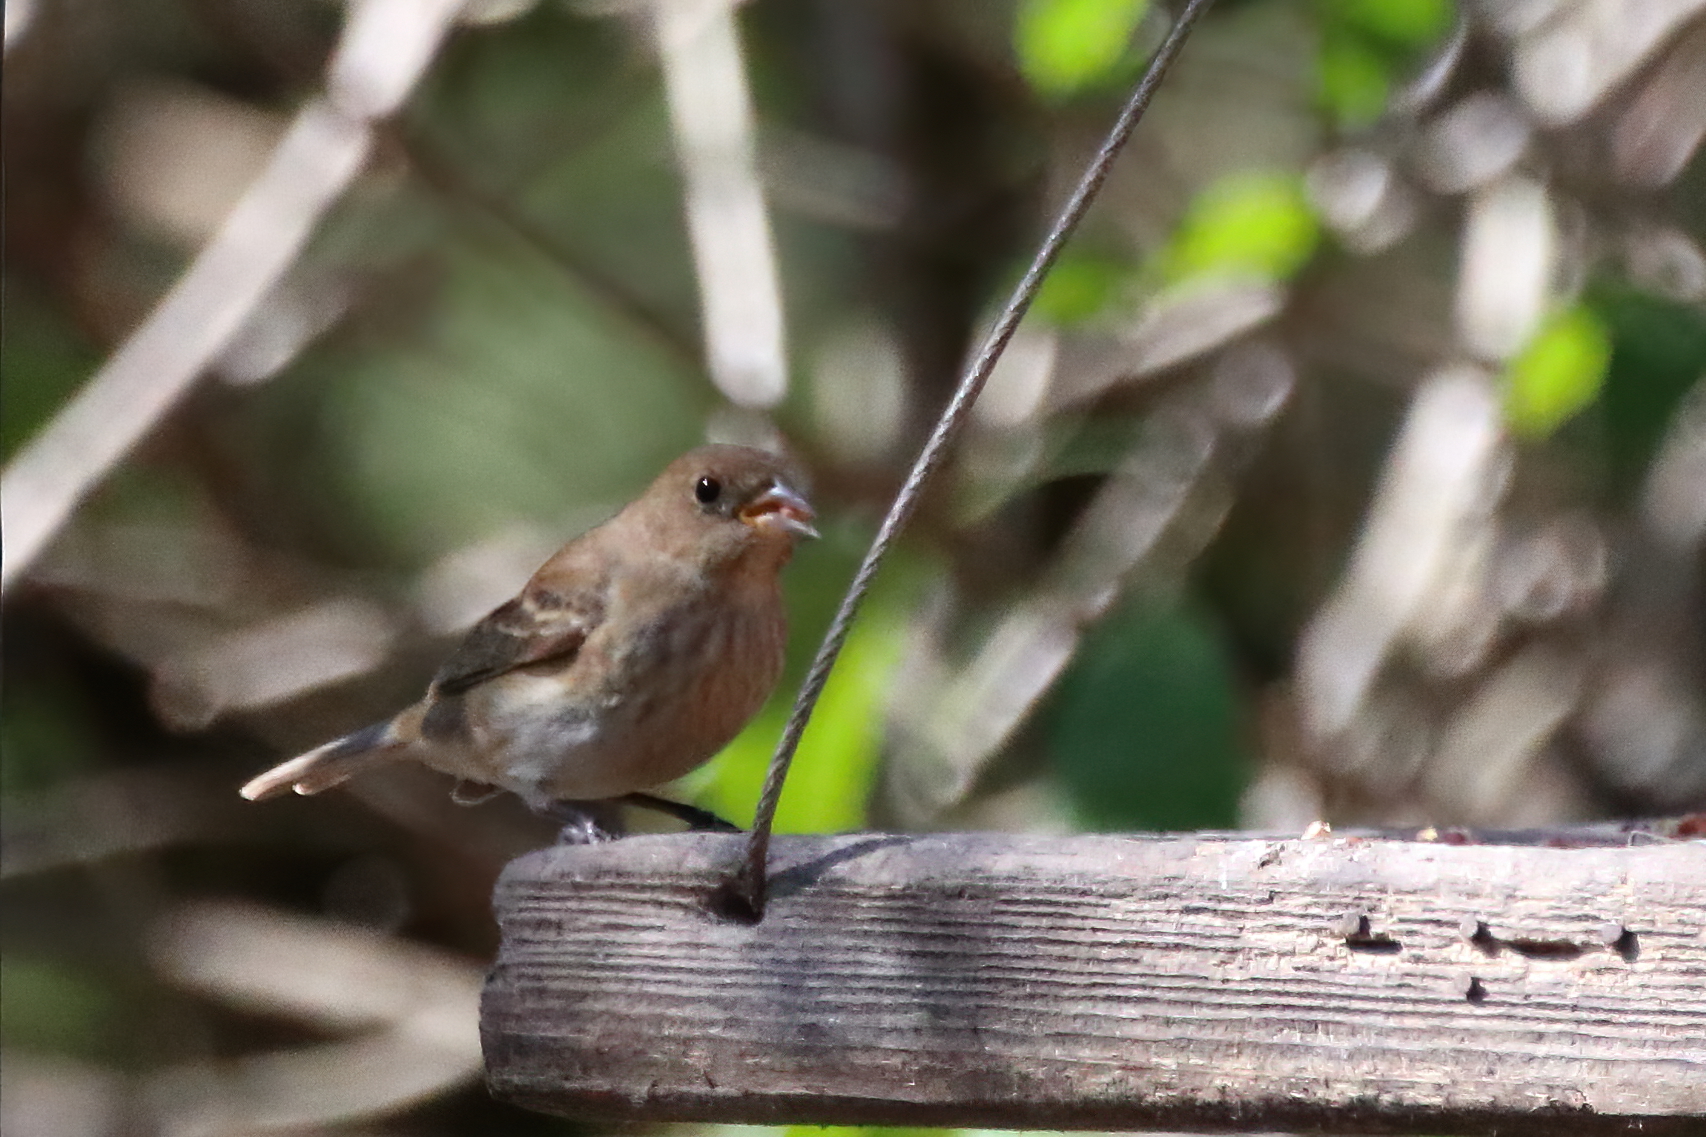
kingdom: Animalia
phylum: Chordata
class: Aves
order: Passeriformes
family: Cardinalidae
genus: Passerina
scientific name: Passerina cyanea
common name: Indigo bunting
